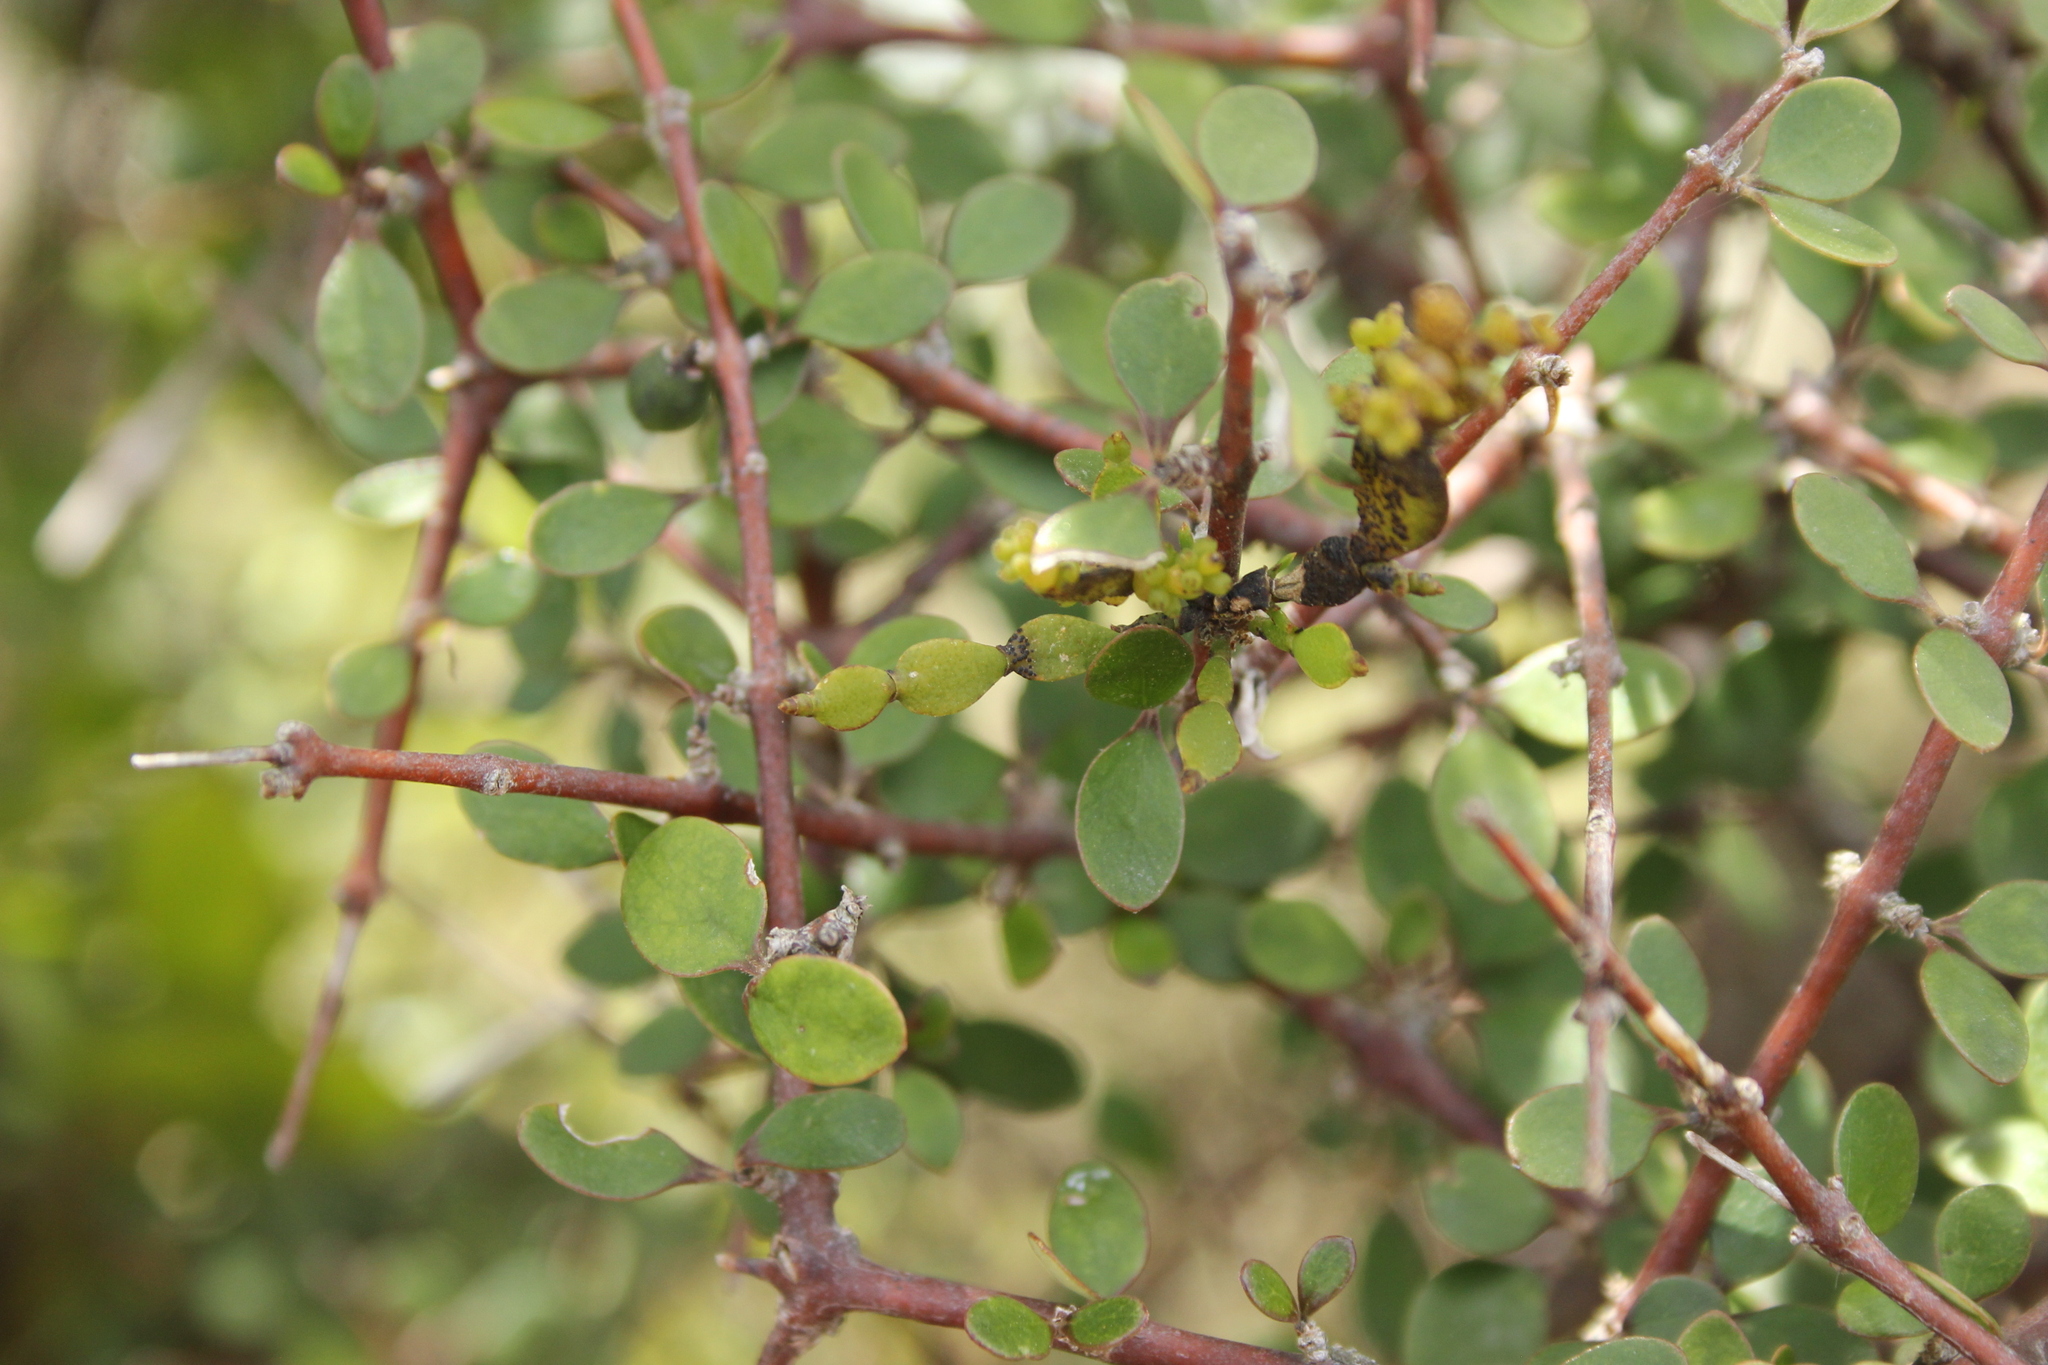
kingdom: Plantae
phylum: Tracheophyta
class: Magnoliopsida
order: Santalales
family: Viscaceae
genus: Korthalsella
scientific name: Korthalsella lindsayi
